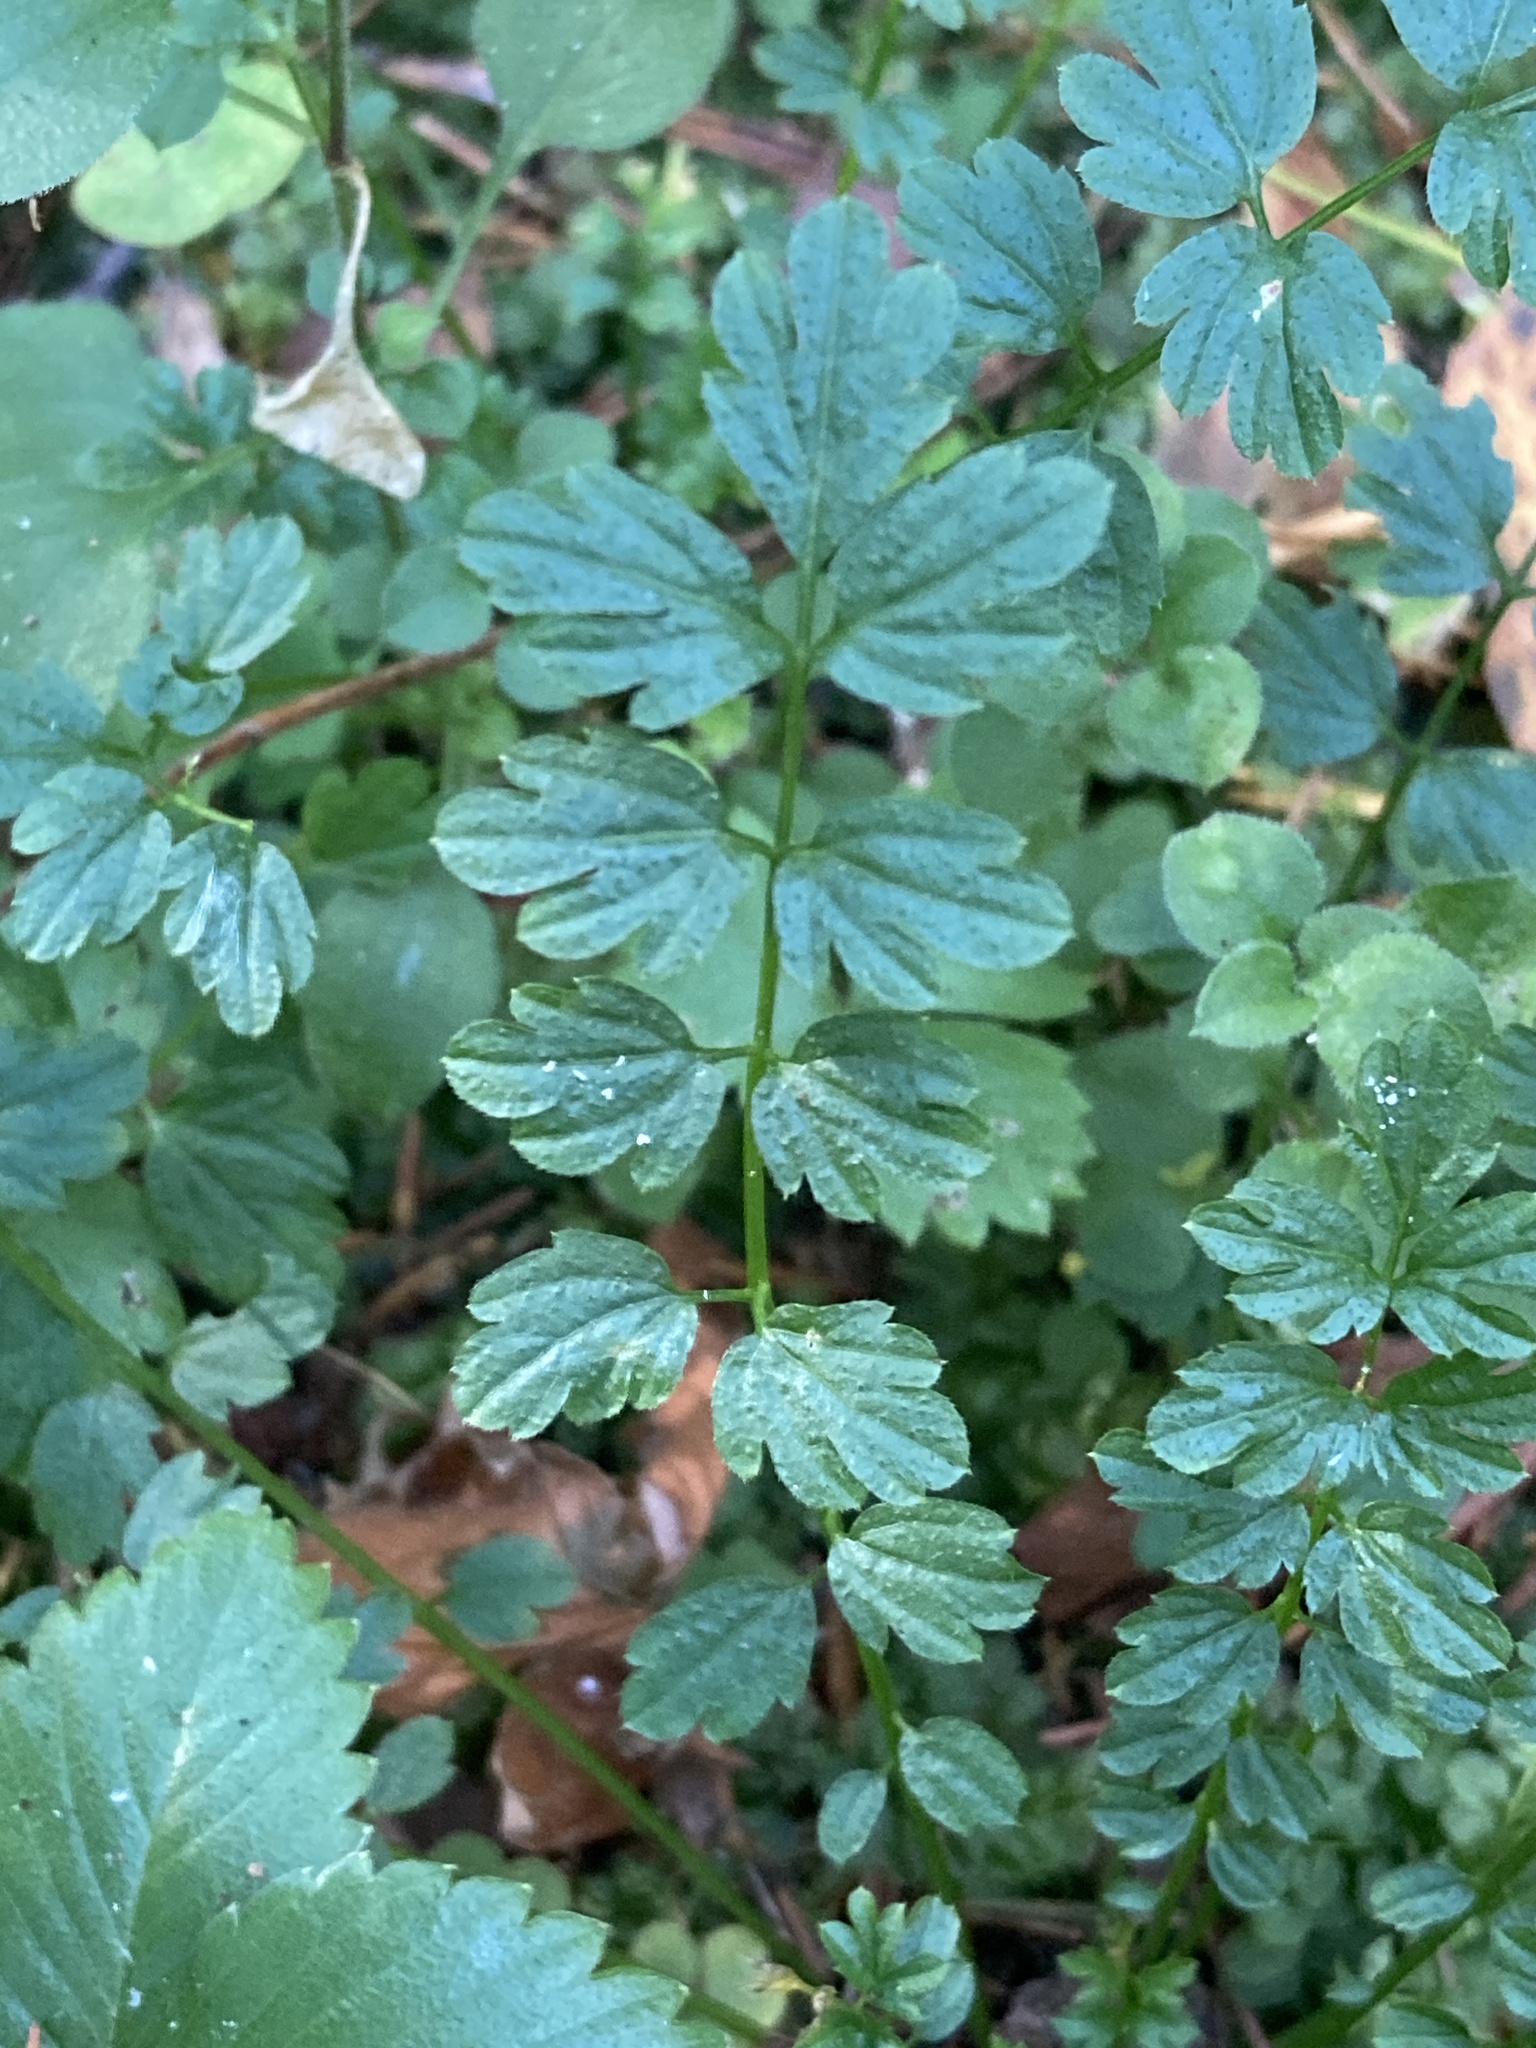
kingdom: Plantae
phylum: Tracheophyta
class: Magnoliopsida
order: Brassicales
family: Brassicaceae
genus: Cardamine
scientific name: Cardamine impatiens
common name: Narrow-leaved bitter-cress
